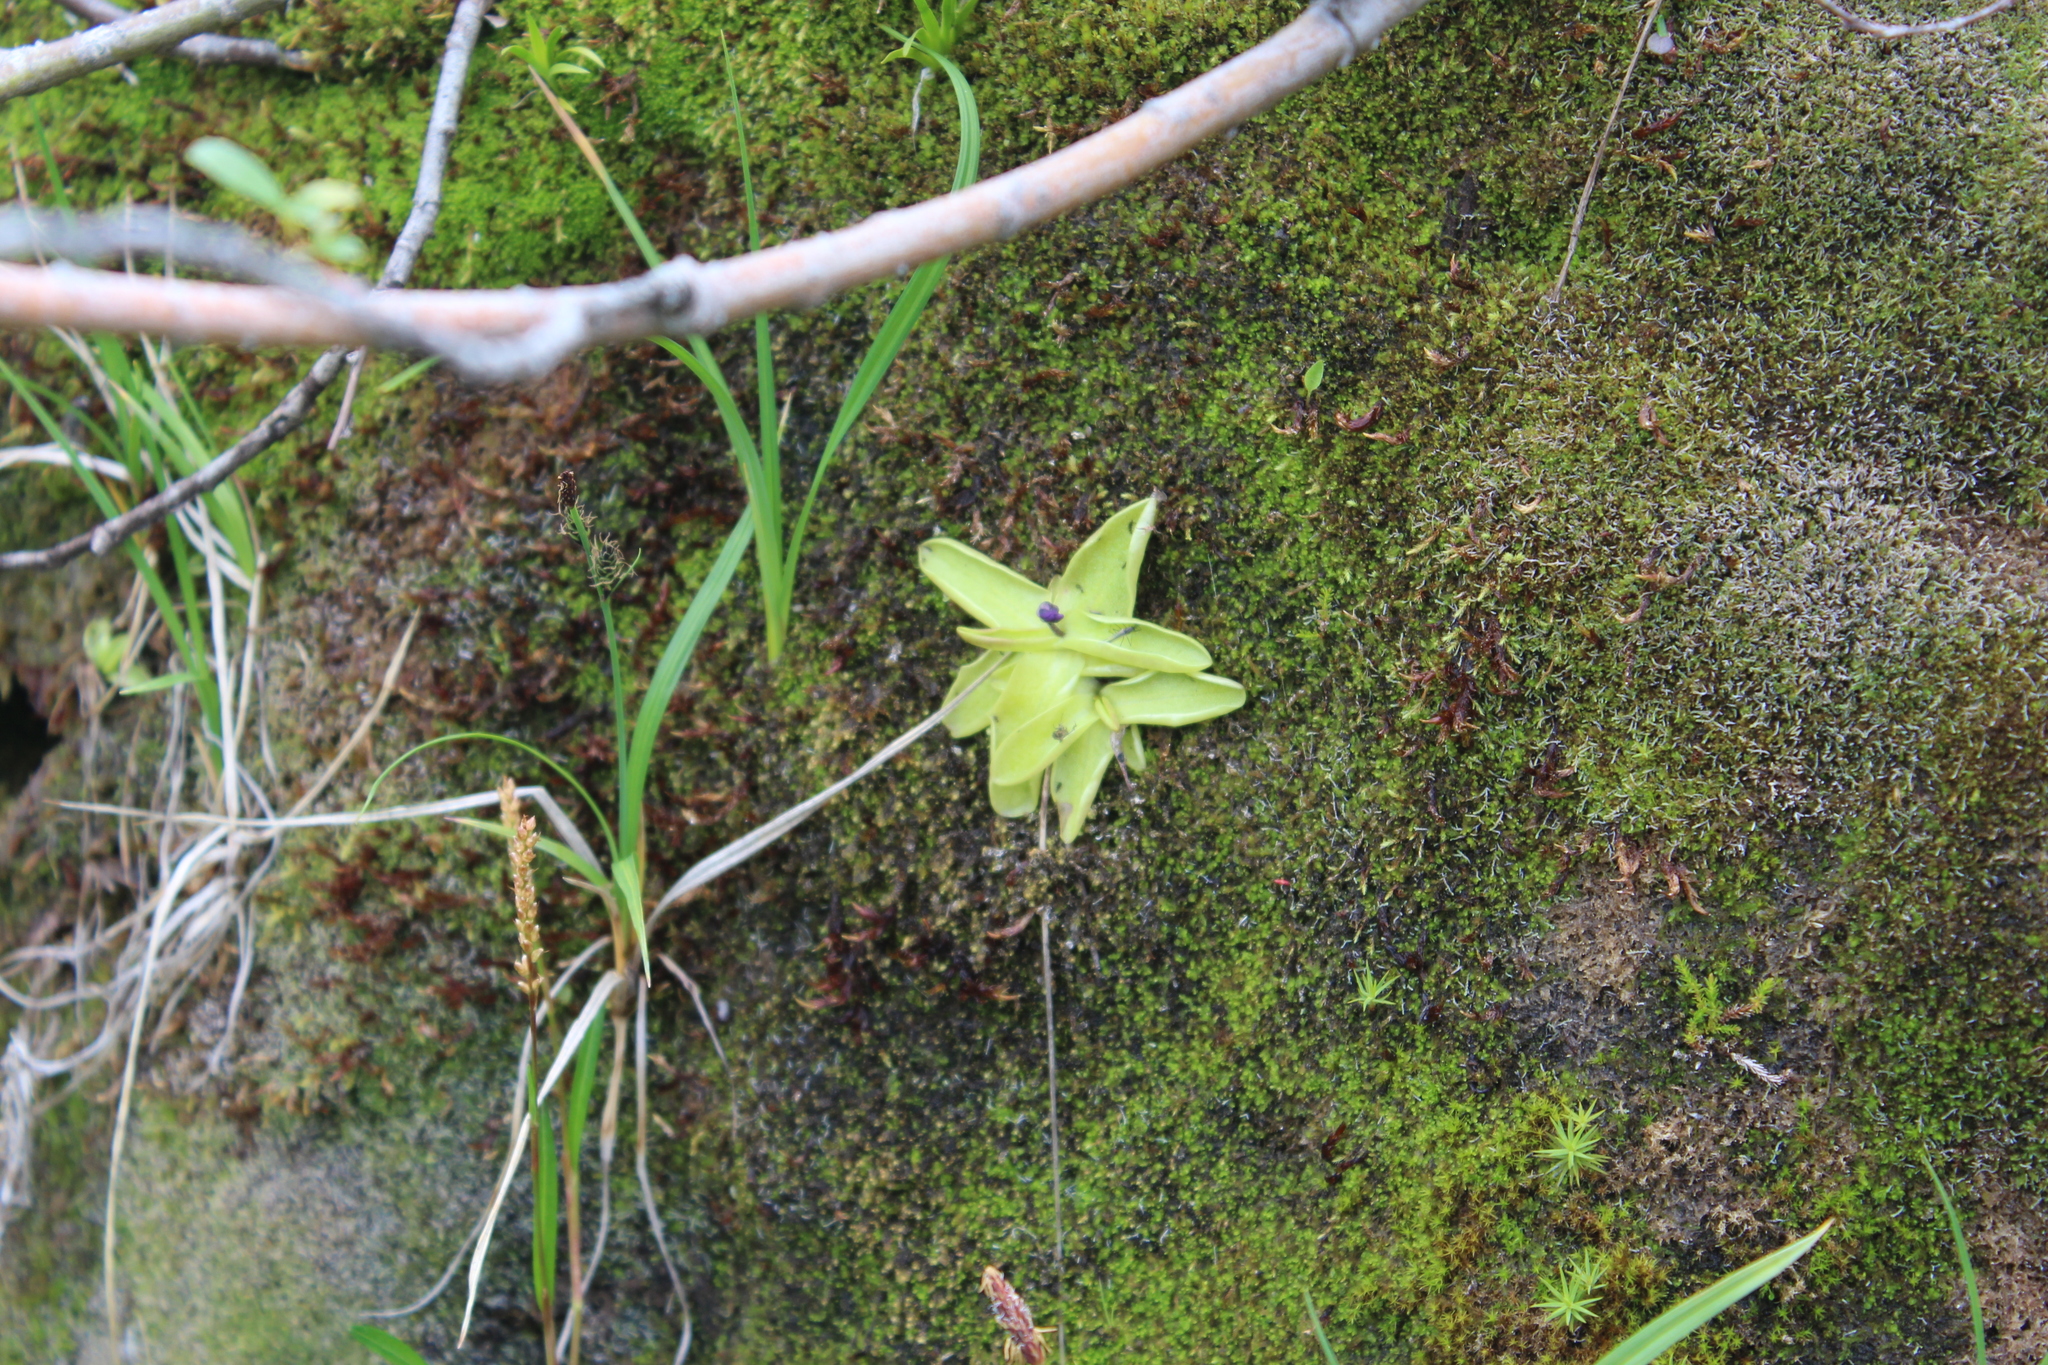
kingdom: Plantae
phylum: Tracheophyta
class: Magnoliopsida
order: Lamiales
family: Lentibulariaceae
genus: Pinguicula
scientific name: Pinguicula vulgaris
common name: Common butterwort
